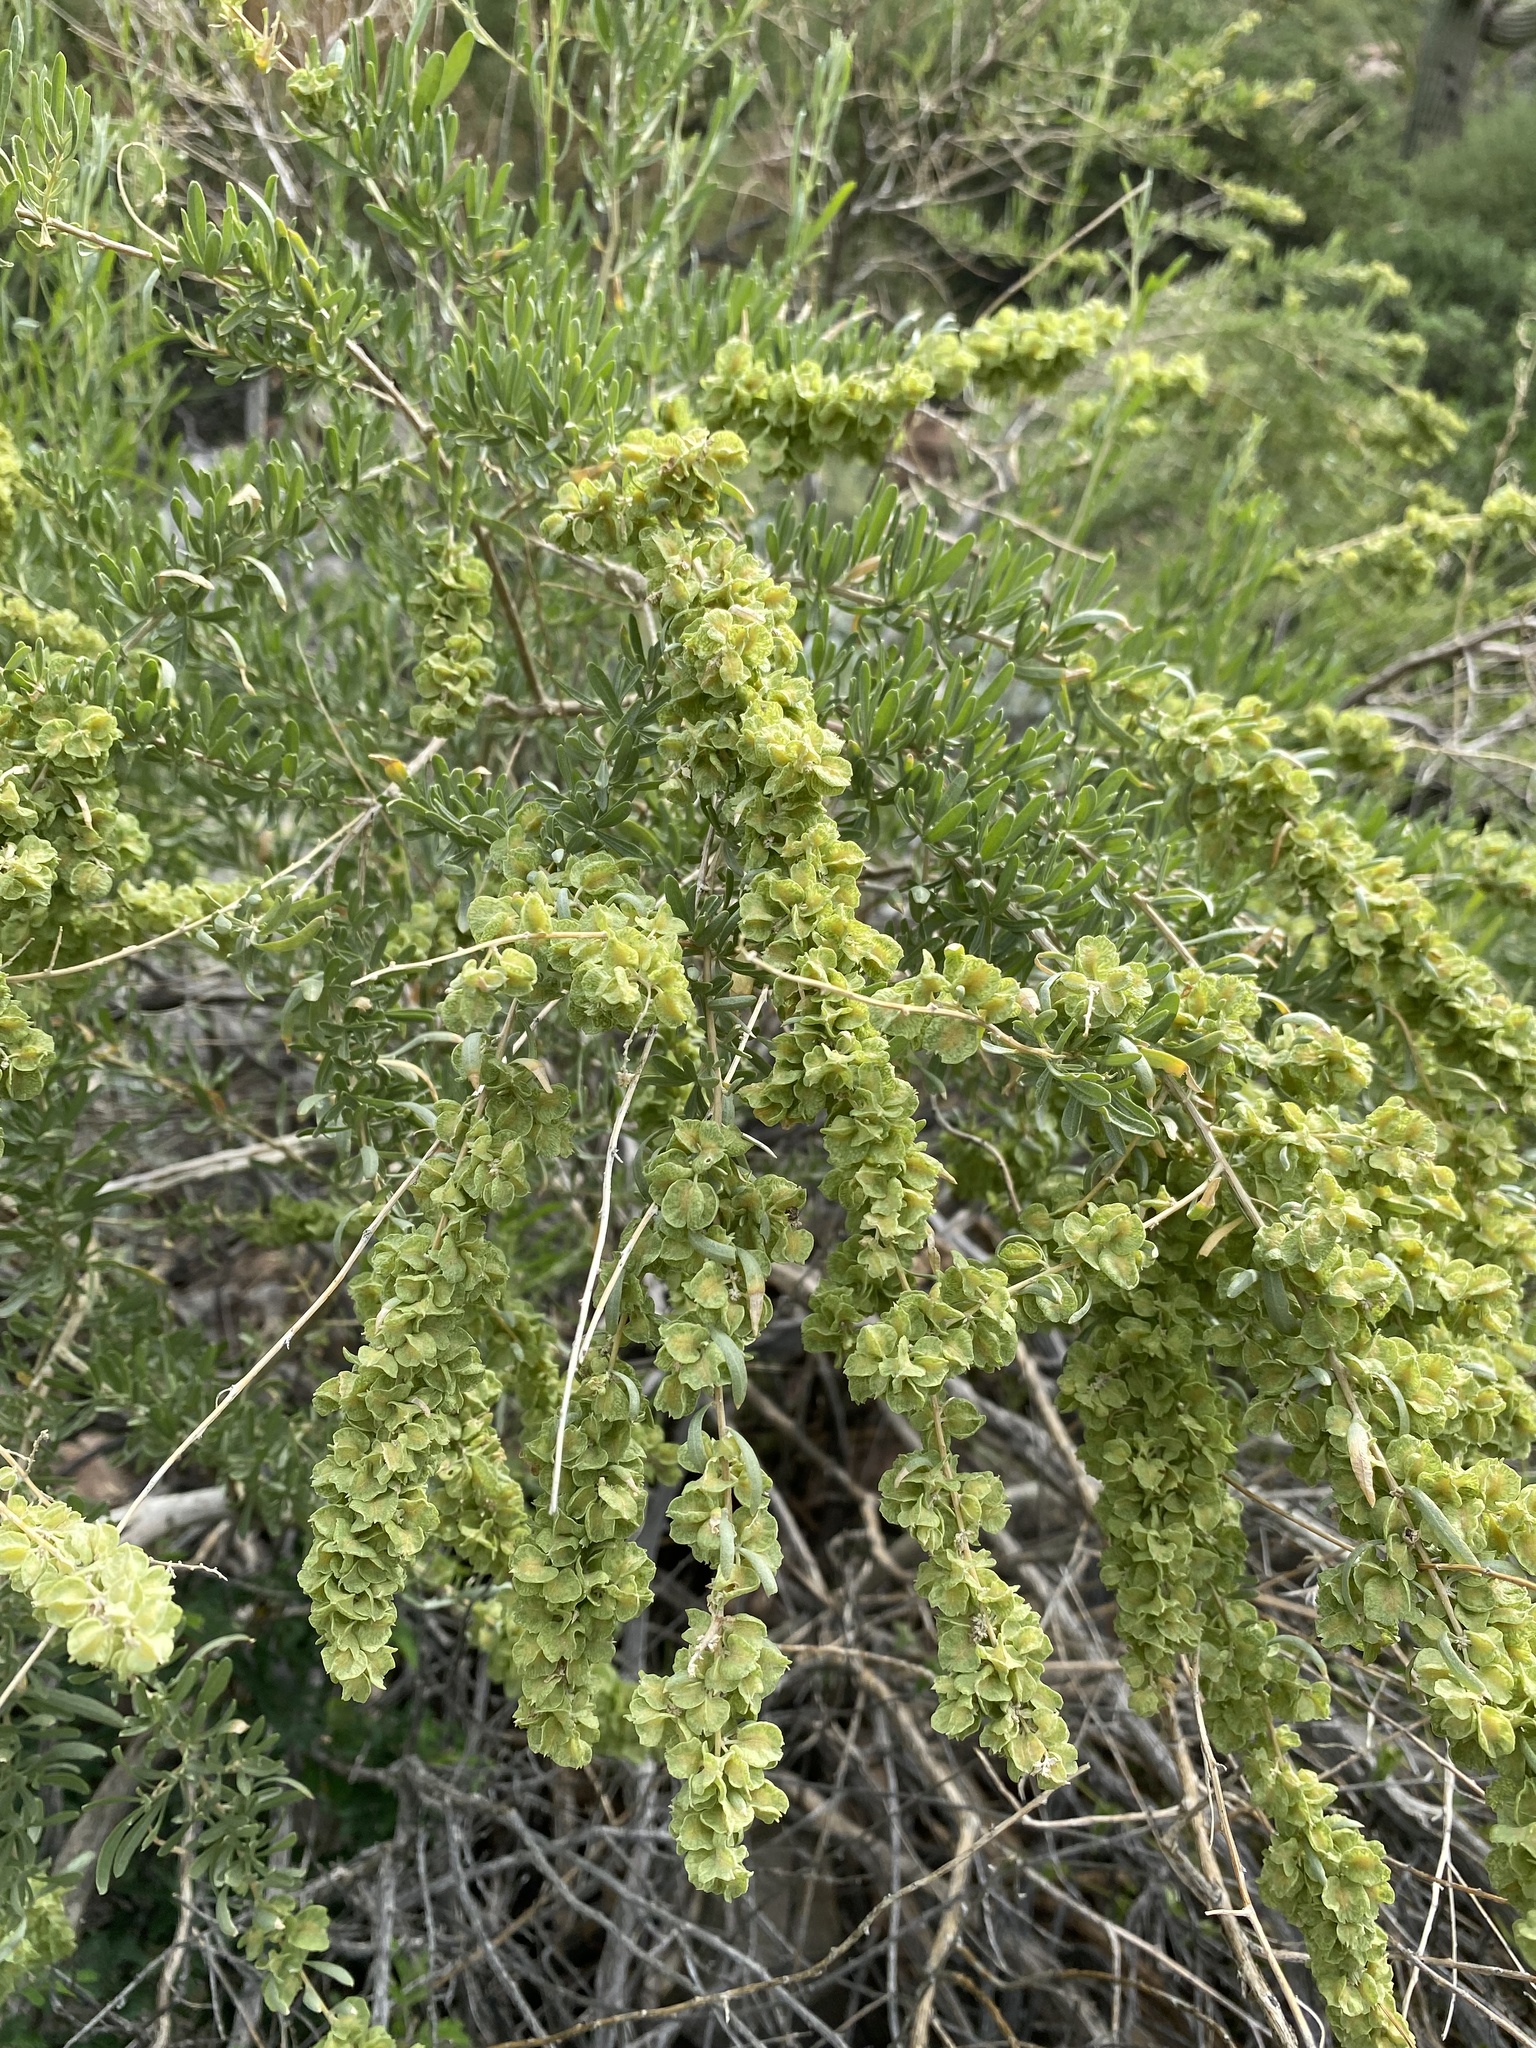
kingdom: Plantae
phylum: Tracheophyta
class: Magnoliopsida
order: Caryophyllales
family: Amaranthaceae
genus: Atriplex
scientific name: Atriplex canescens
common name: Four-wing saltbush
